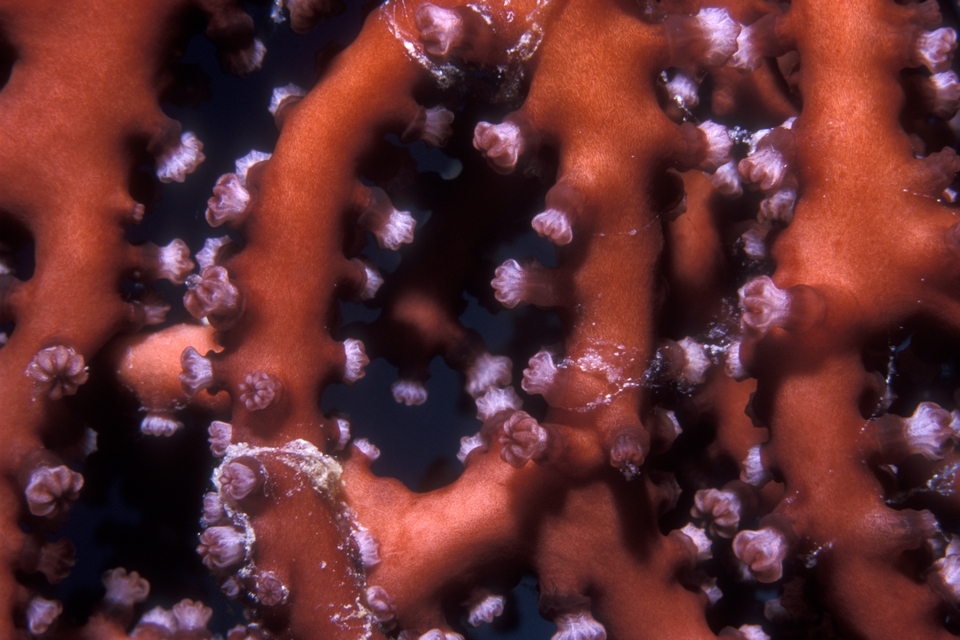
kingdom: Animalia
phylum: Cnidaria
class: Anthozoa
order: Malacalcyonacea
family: Melithaeidae
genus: Iciligorgia
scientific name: Iciligorgia schrammi
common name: Black sea fan
